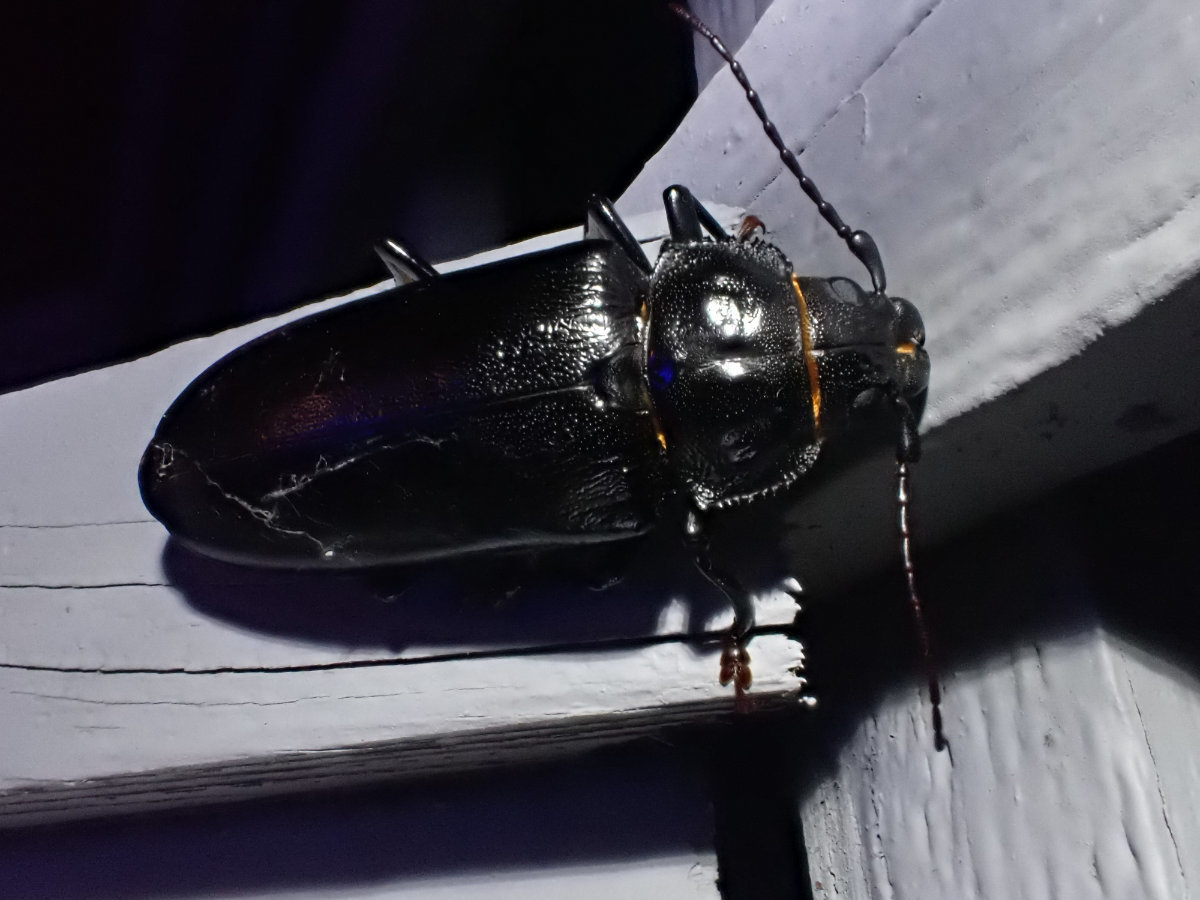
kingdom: Animalia
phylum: Arthropoda
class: Insecta
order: Coleoptera
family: Cerambycidae
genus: Archodontes
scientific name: Archodontes melanopus
